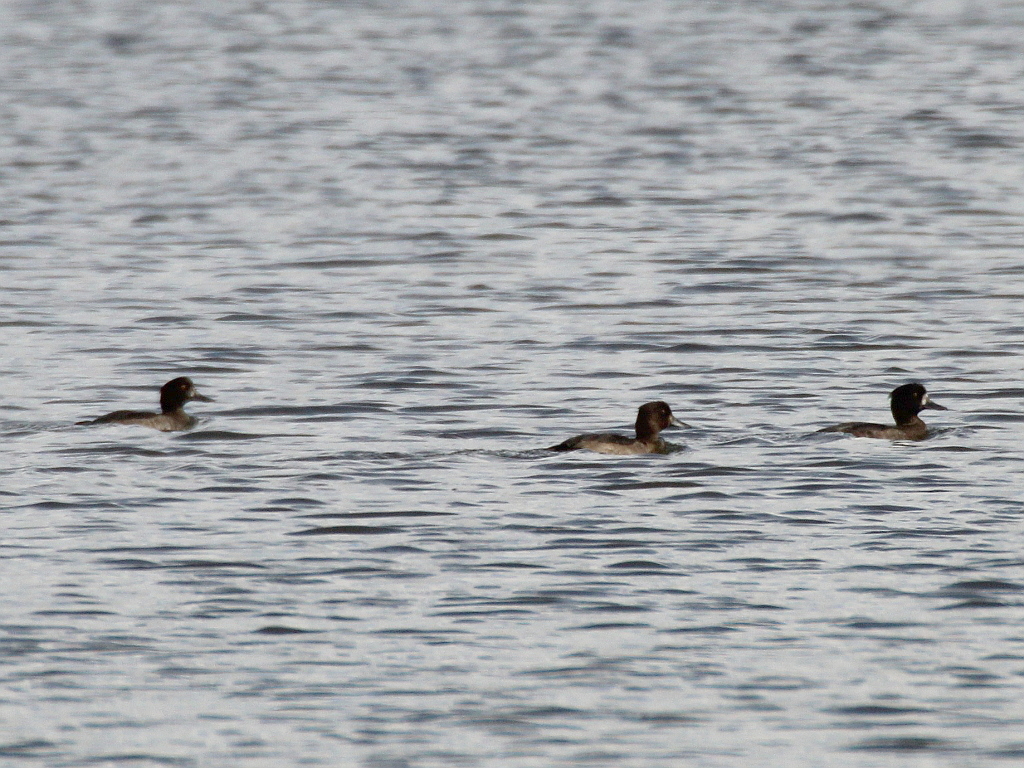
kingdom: Animalia
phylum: Chordata
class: Aves
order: Anseriformes
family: Anatidae
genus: Aythya
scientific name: Aythya fuligula
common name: Tufted duck
